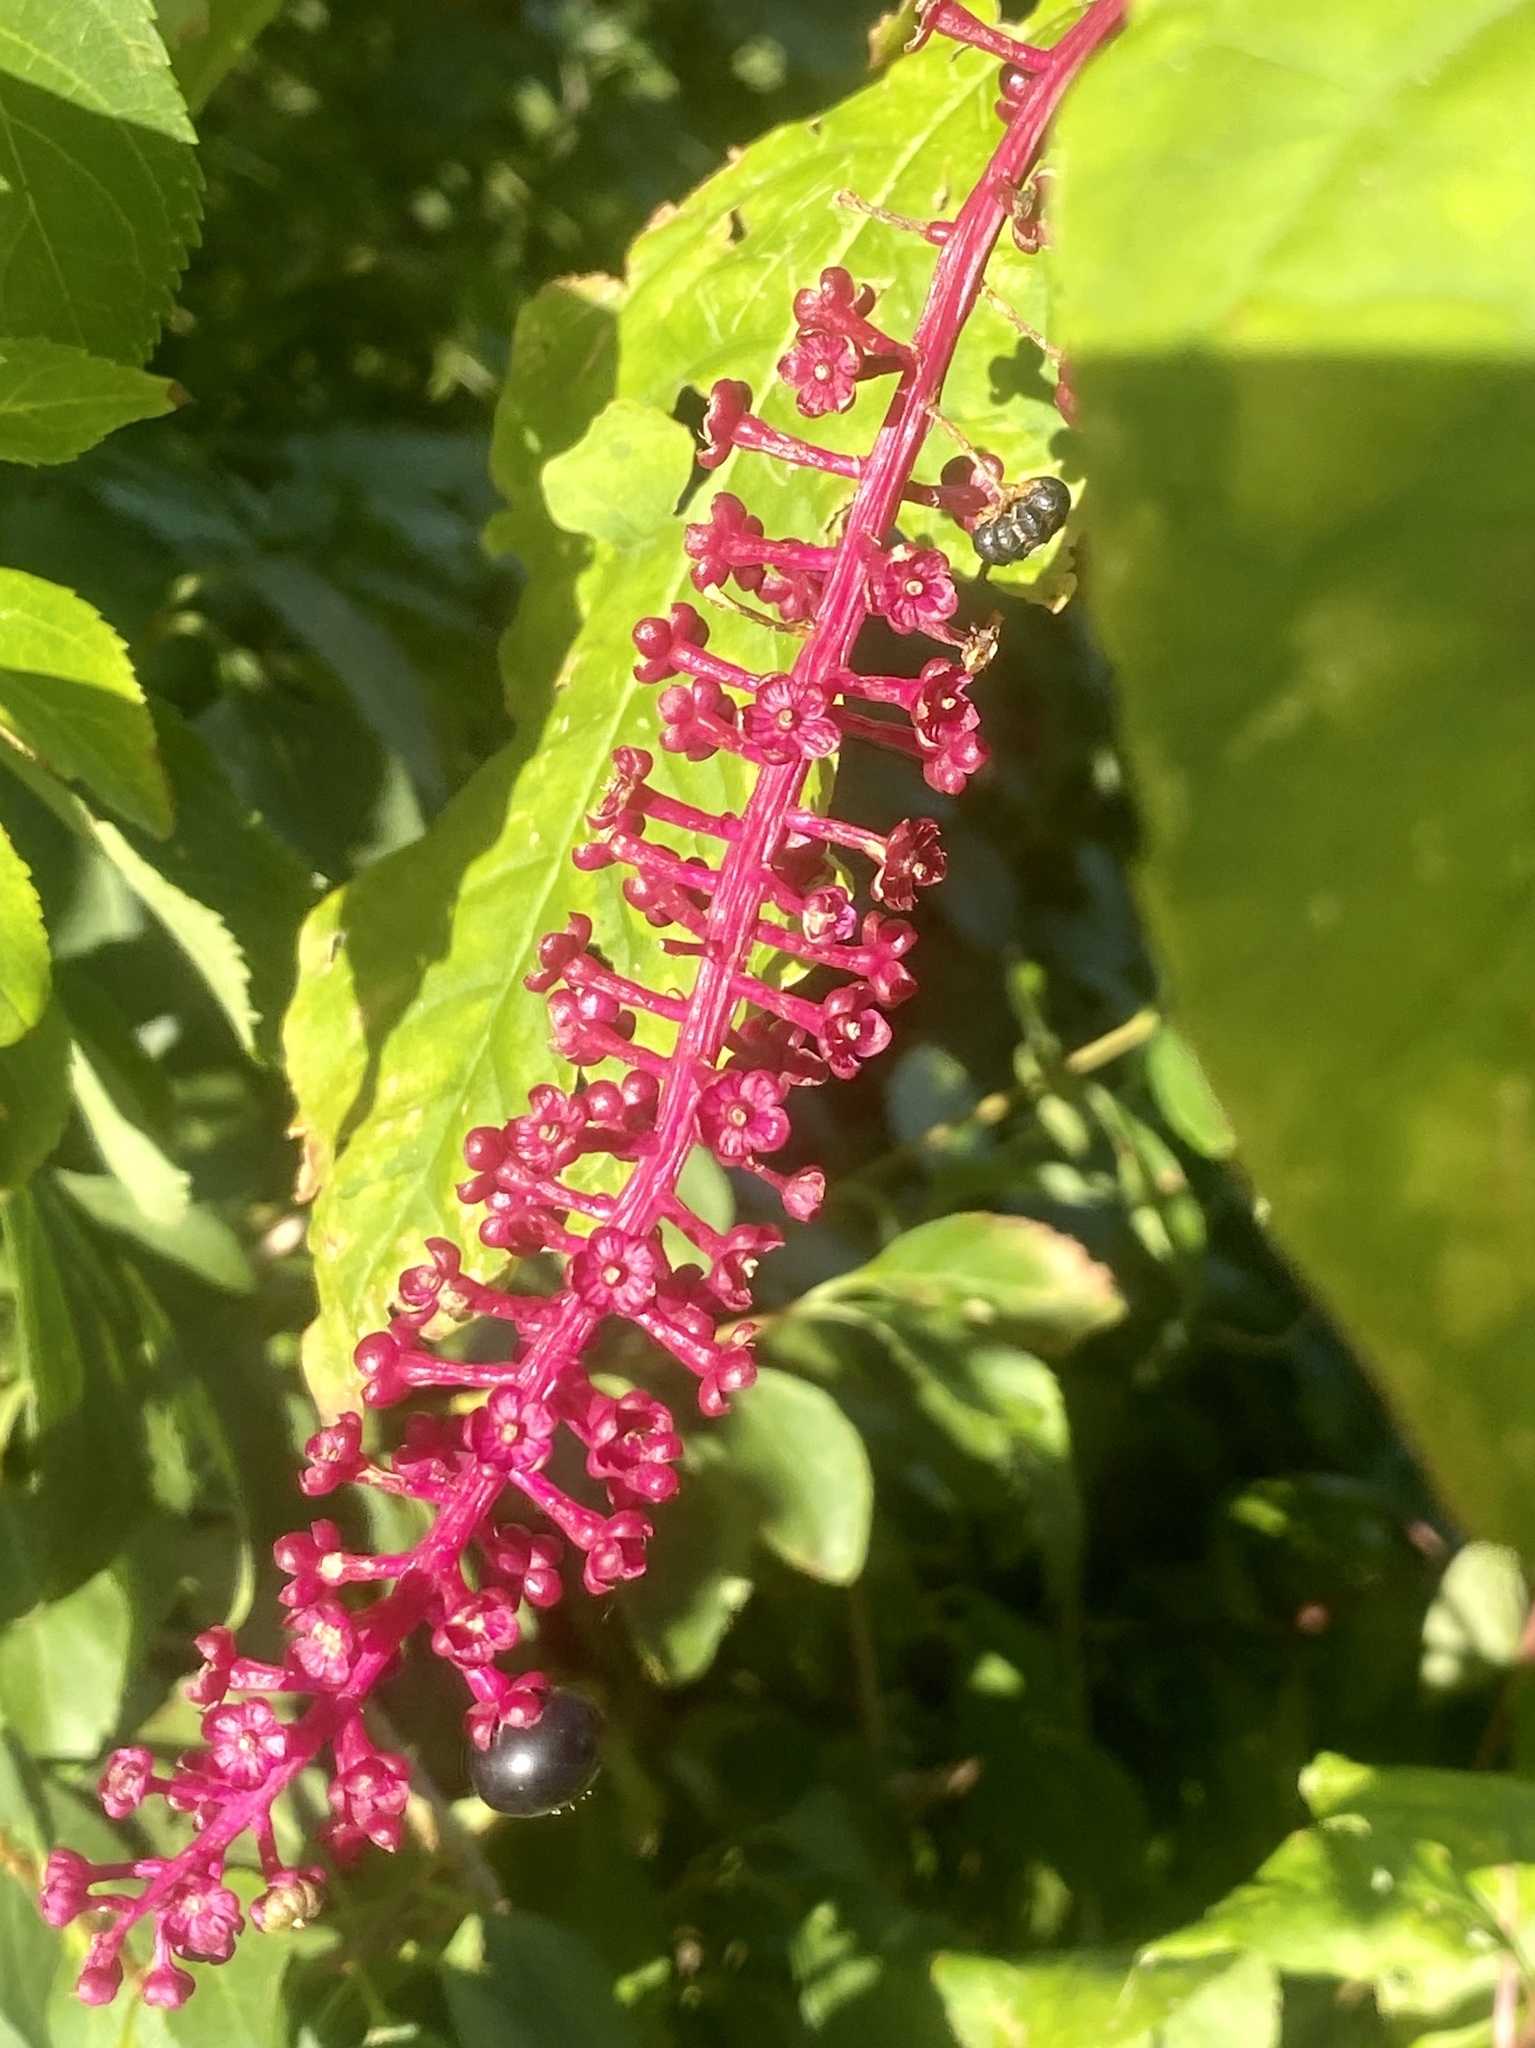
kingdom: Plantae
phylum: Tracheophyta
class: Magnoliopsida
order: Caryophyllales
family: Phytolaccaceae
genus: Phytolacca
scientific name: Phytolacca americana
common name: American pokeweed
